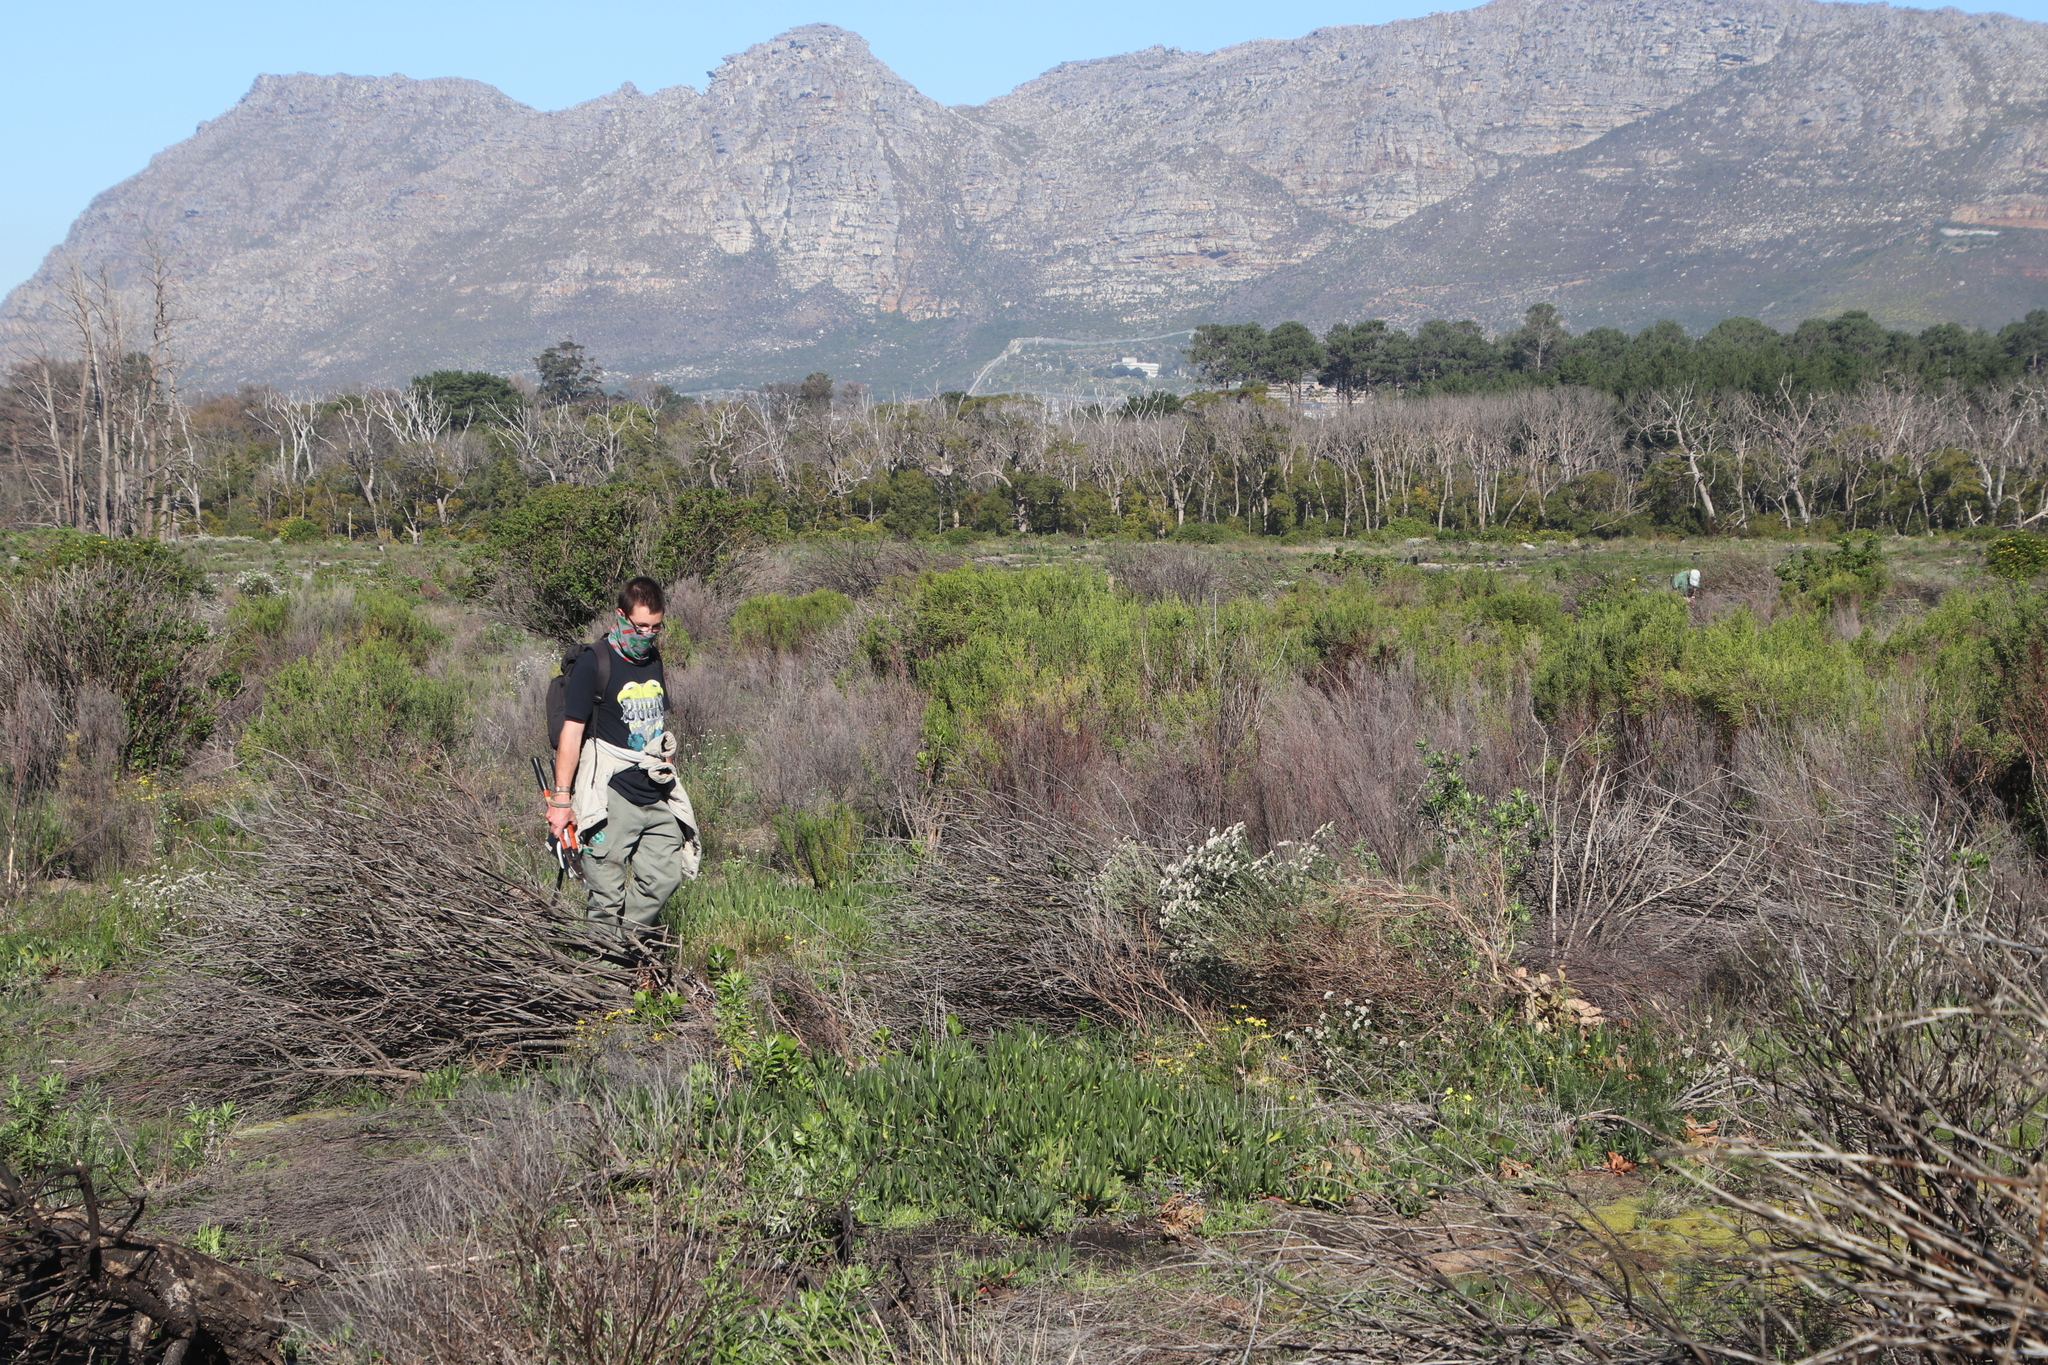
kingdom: Plantae
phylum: Tracheophyta
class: Magnoliopsida
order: Caryophyllales
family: Aizoaceae
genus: Carpobrotus
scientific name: Carpobrotus edulis
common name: Hottentot-fig
